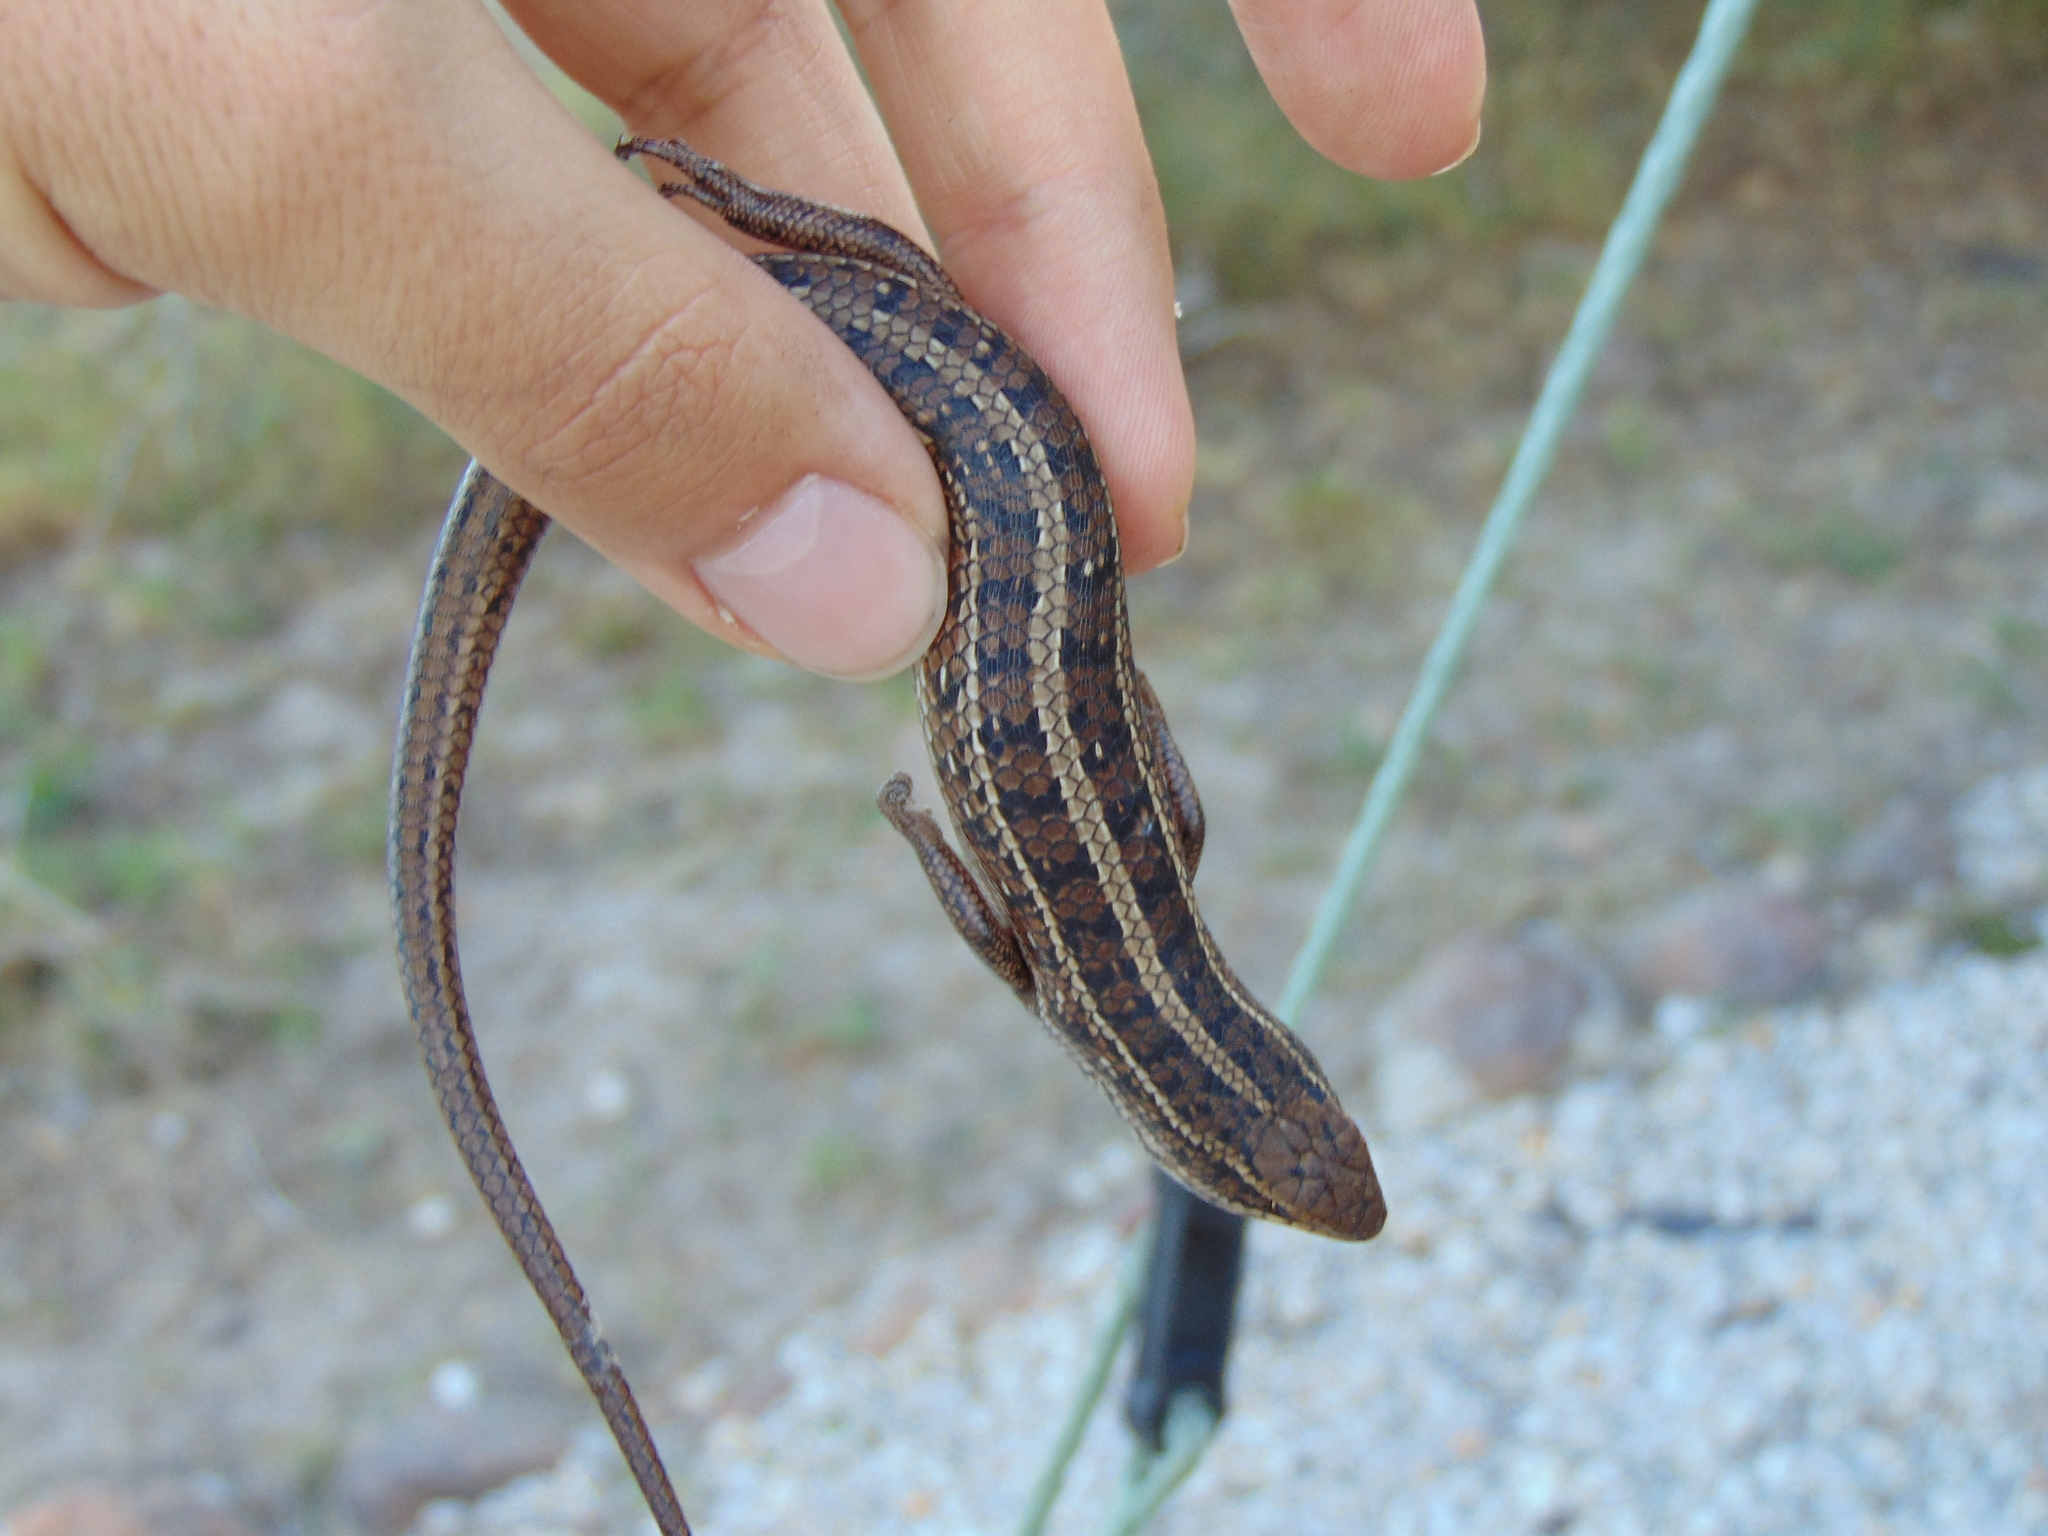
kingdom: Animalia
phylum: Chordata
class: Squamata
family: Scincidae
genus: Trachylepis
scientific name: Trachylepis capensis
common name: Cape skink
